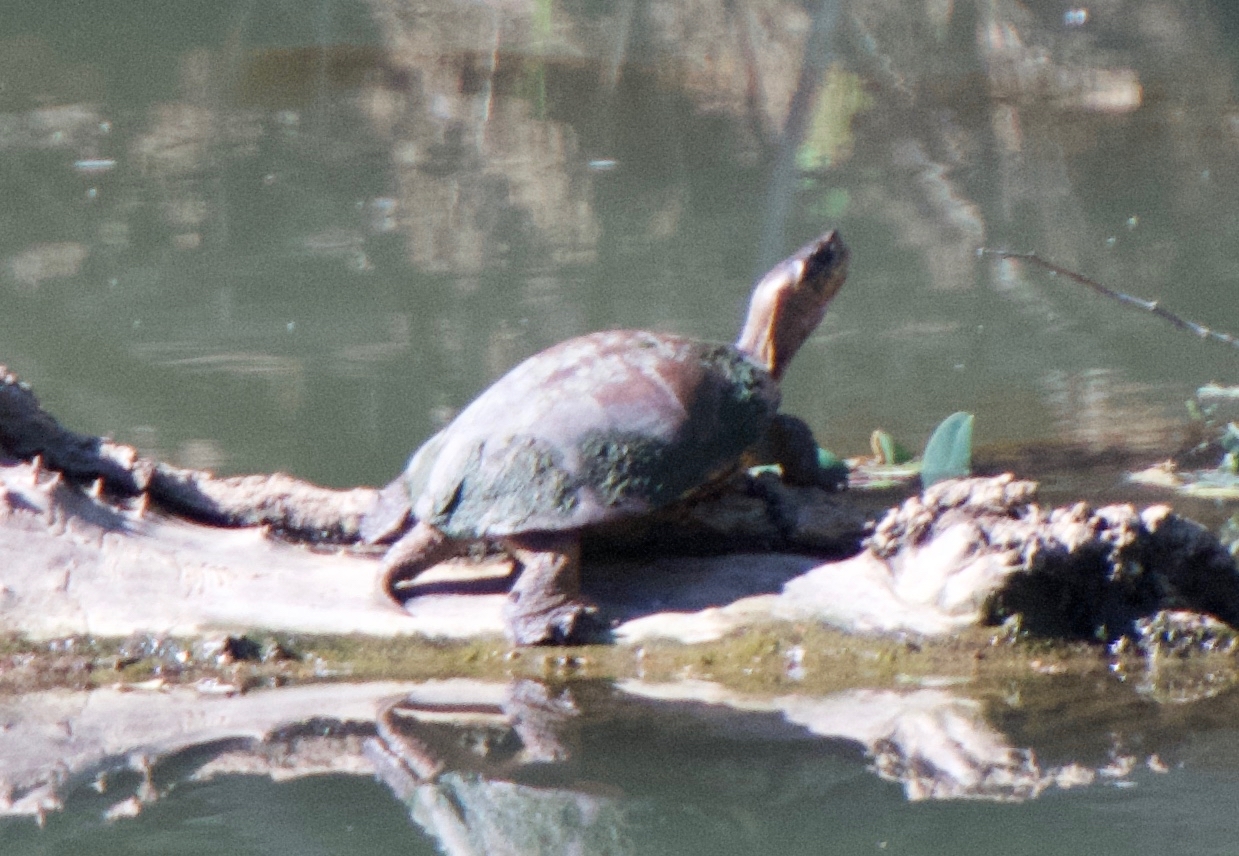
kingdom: Animalia
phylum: Chordata
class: Testudines
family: Emydidae
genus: Actinemys
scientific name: Actinemys marmorata
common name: Western pond turtle
